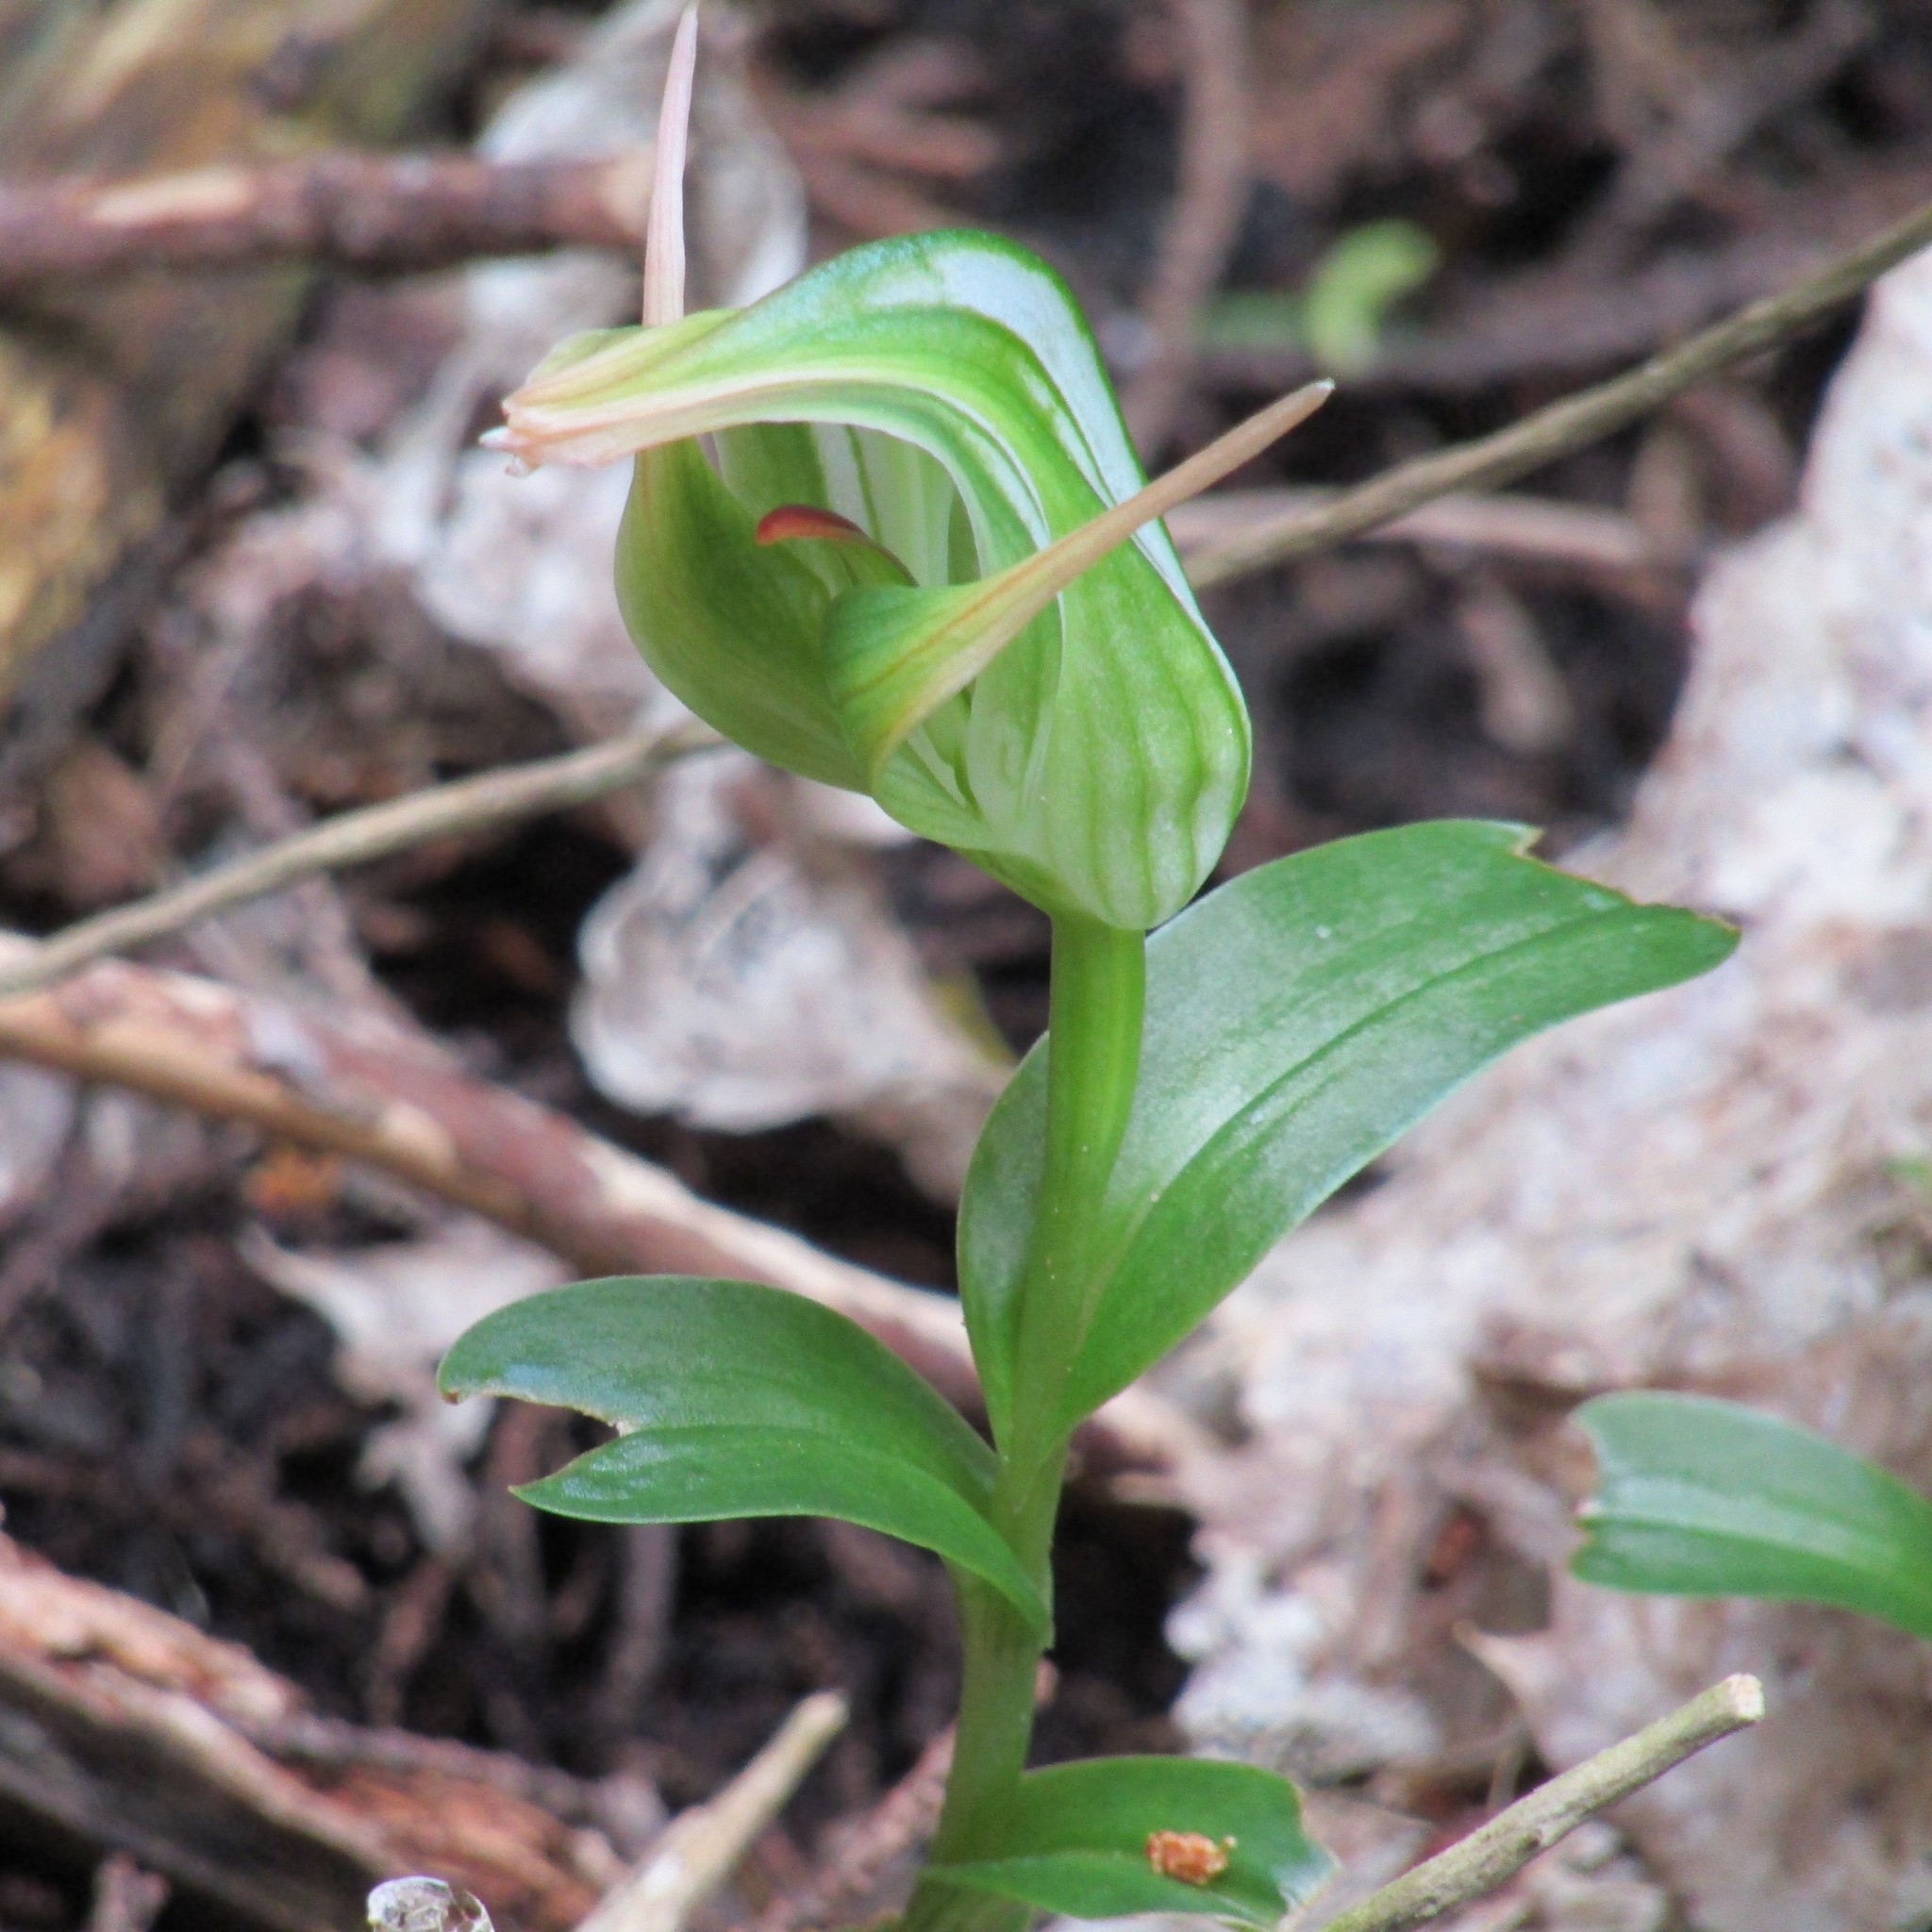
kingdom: Plantae
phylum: Tracheophyta
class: Liliopsida
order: Asparagales
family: Orchidaceae
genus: Pterostylis
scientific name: Pterostylis banksii
